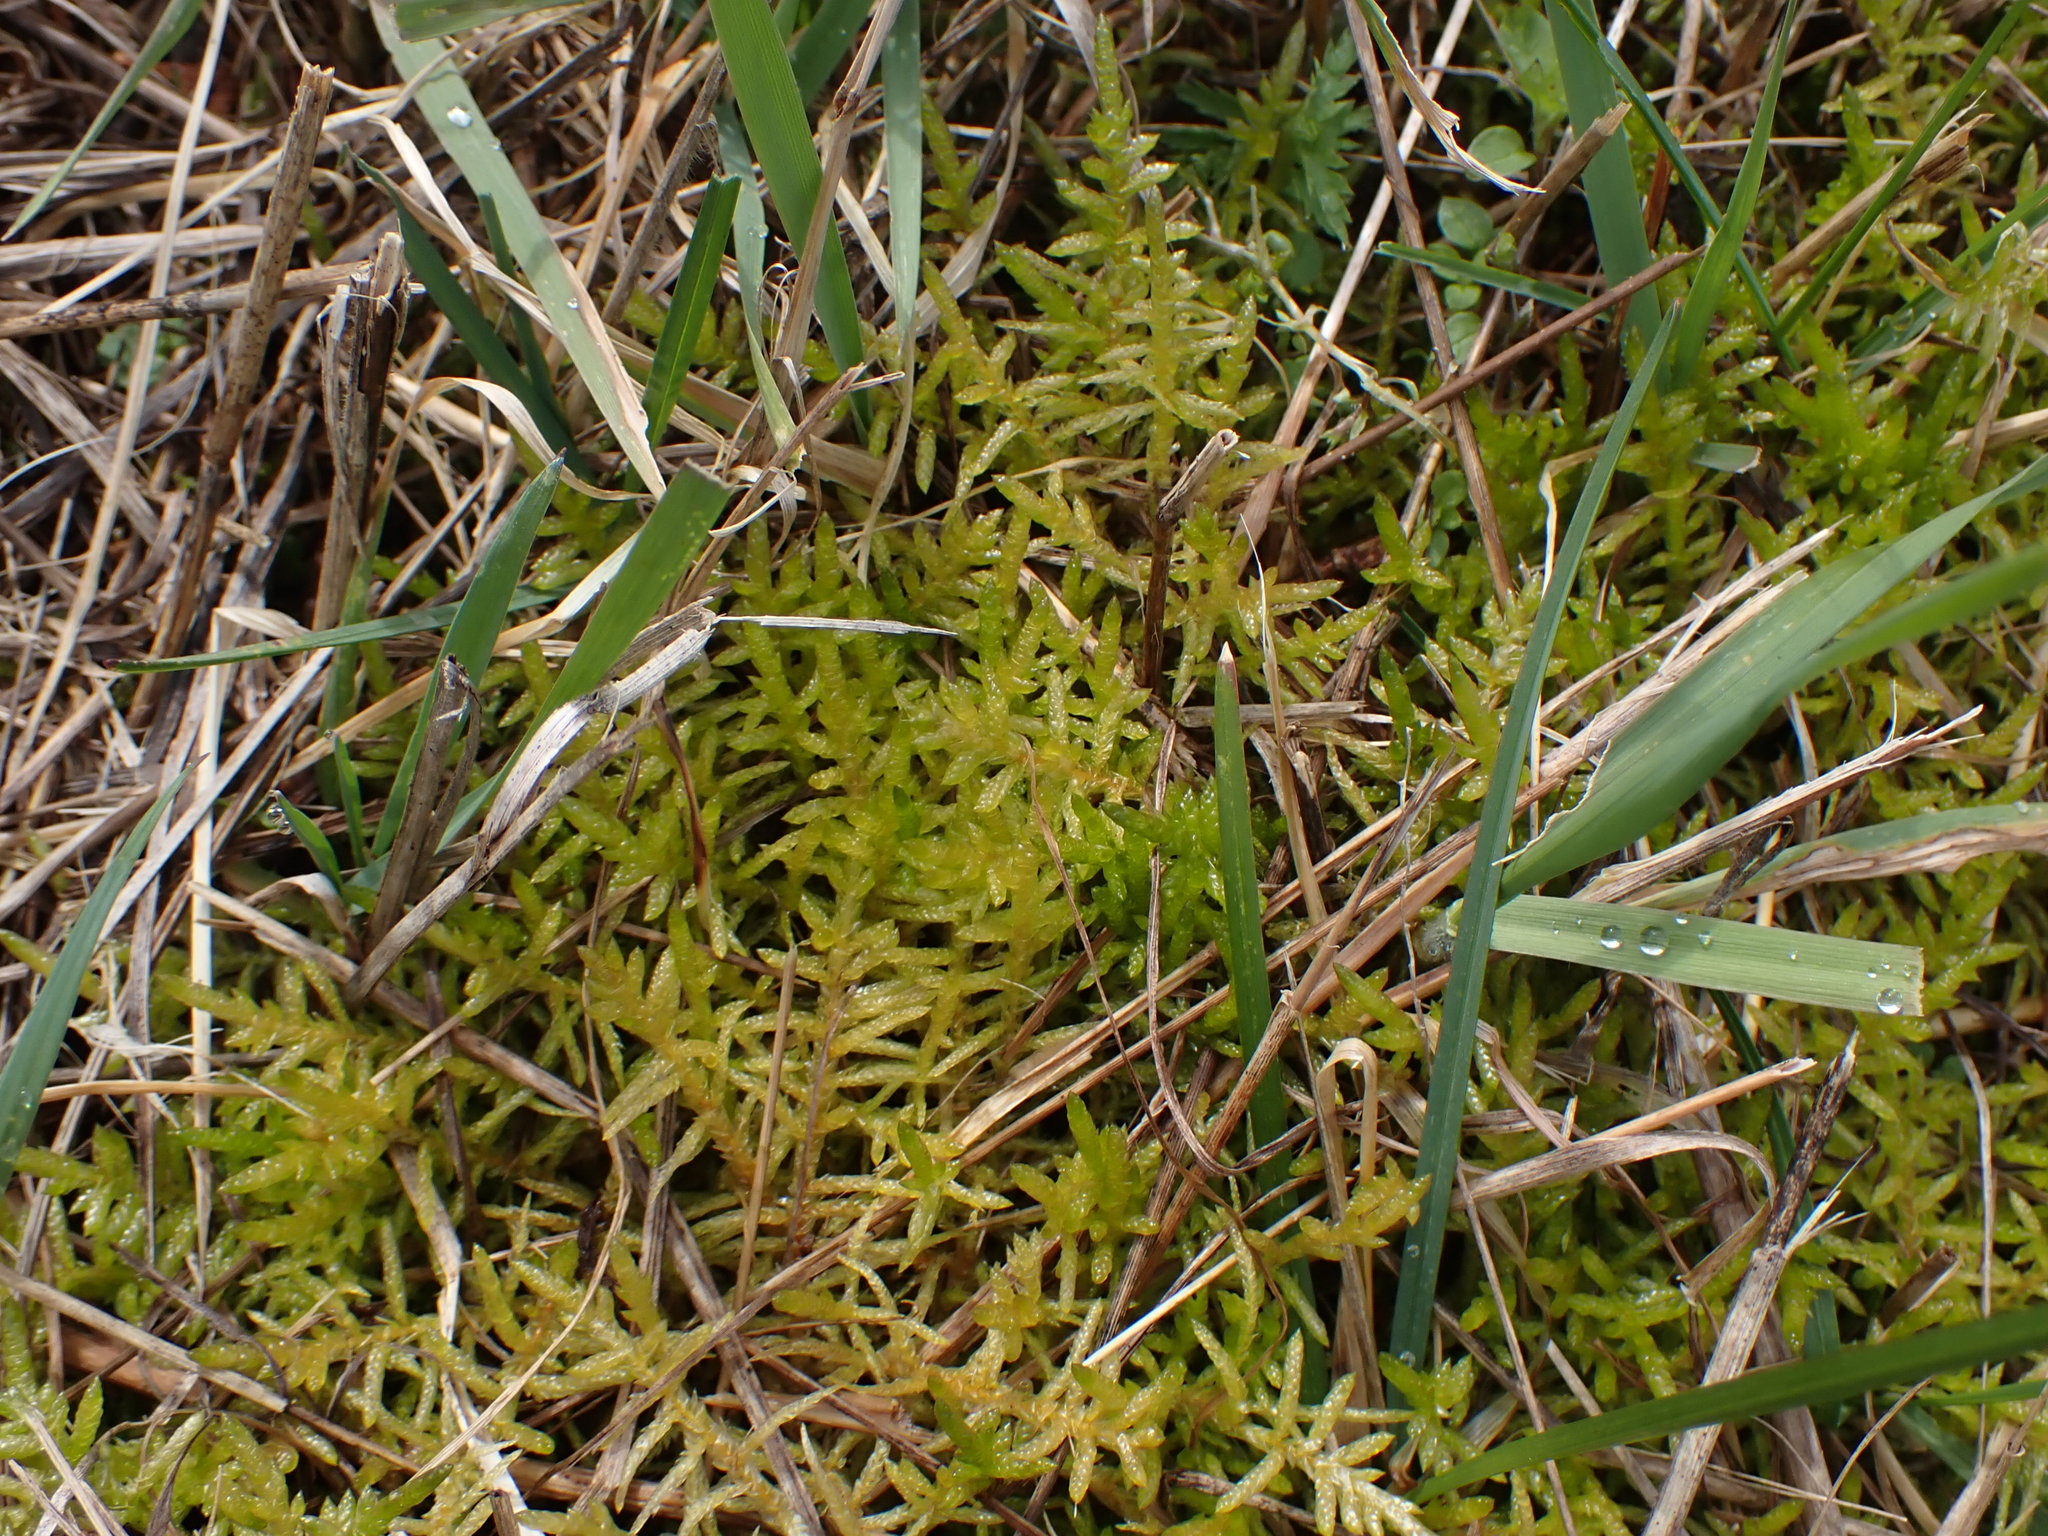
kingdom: Plantae
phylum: Bryophyta
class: Bryopsida
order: Hypnales
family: Brachytheciaceae
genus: Pseudoscleropodium
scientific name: Pseudoscleropodium purum
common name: Neat feather-moss
